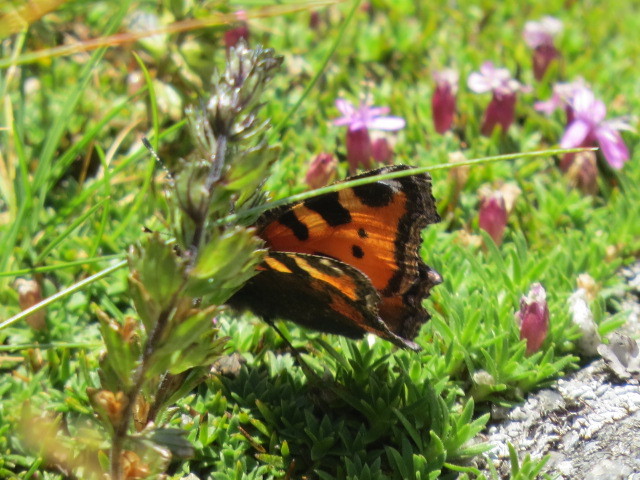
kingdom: Animalia
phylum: Arthropoda
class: Insecta
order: Lepidoptera
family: Nymphalidae
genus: Aglais
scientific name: Aglais urticae
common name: Small tortoiseshell
